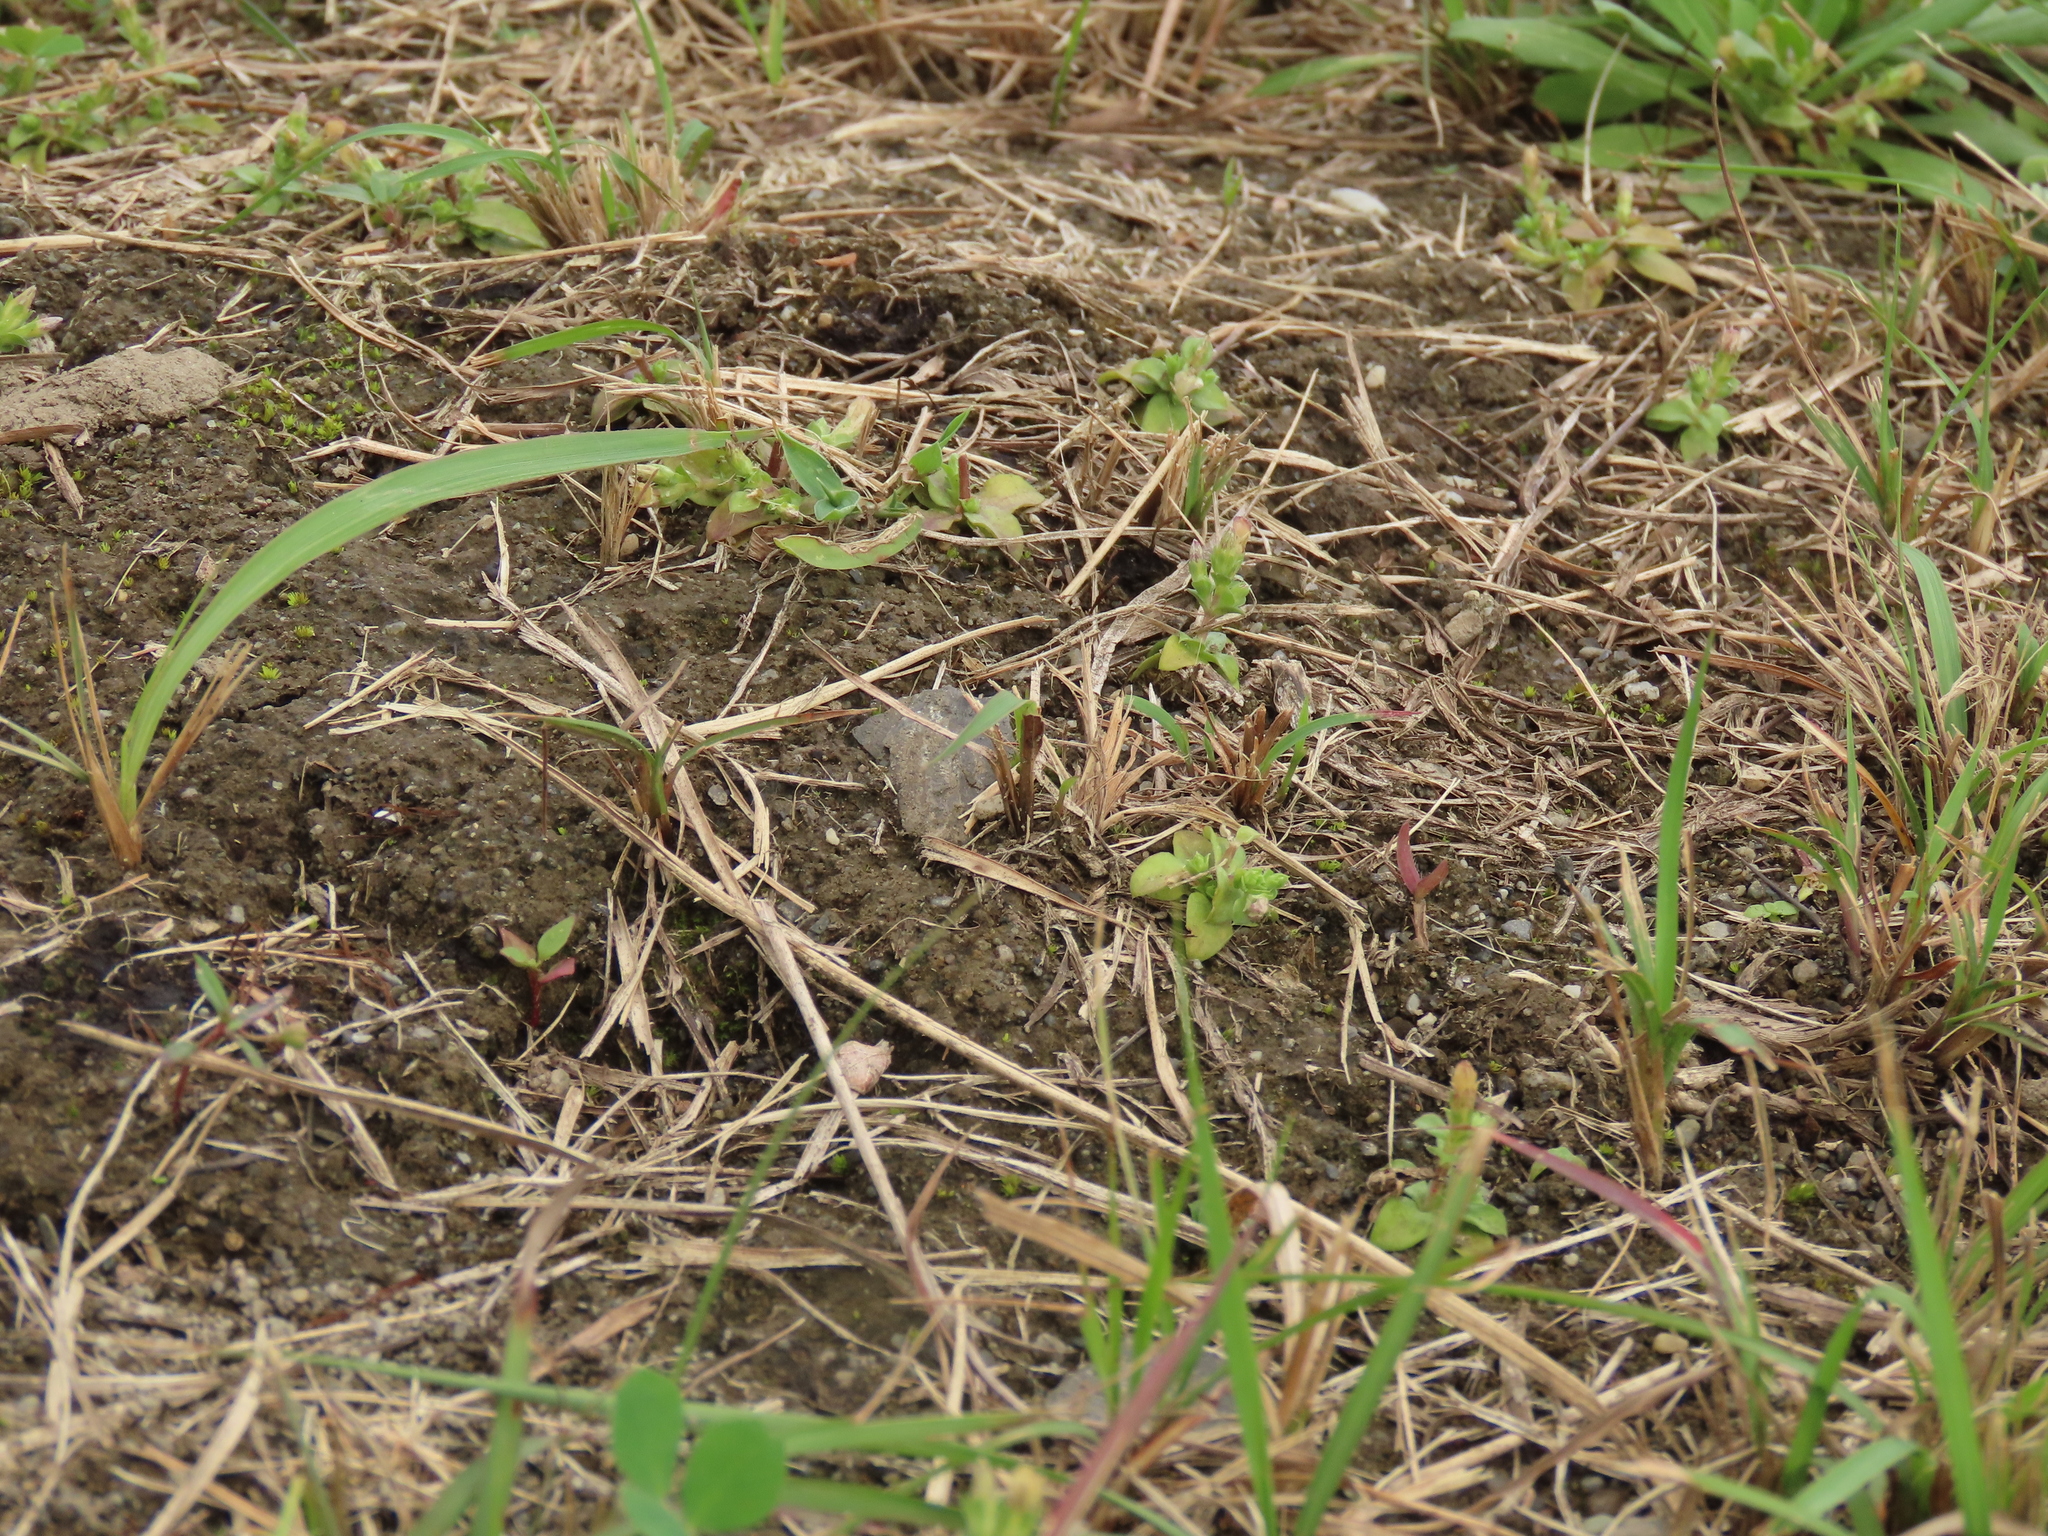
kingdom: Plantae
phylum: Tracheophyta
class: Magnoliopsida
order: Gentianales
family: Gentianaceae
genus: Gentiana
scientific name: Gentiana yokusai
